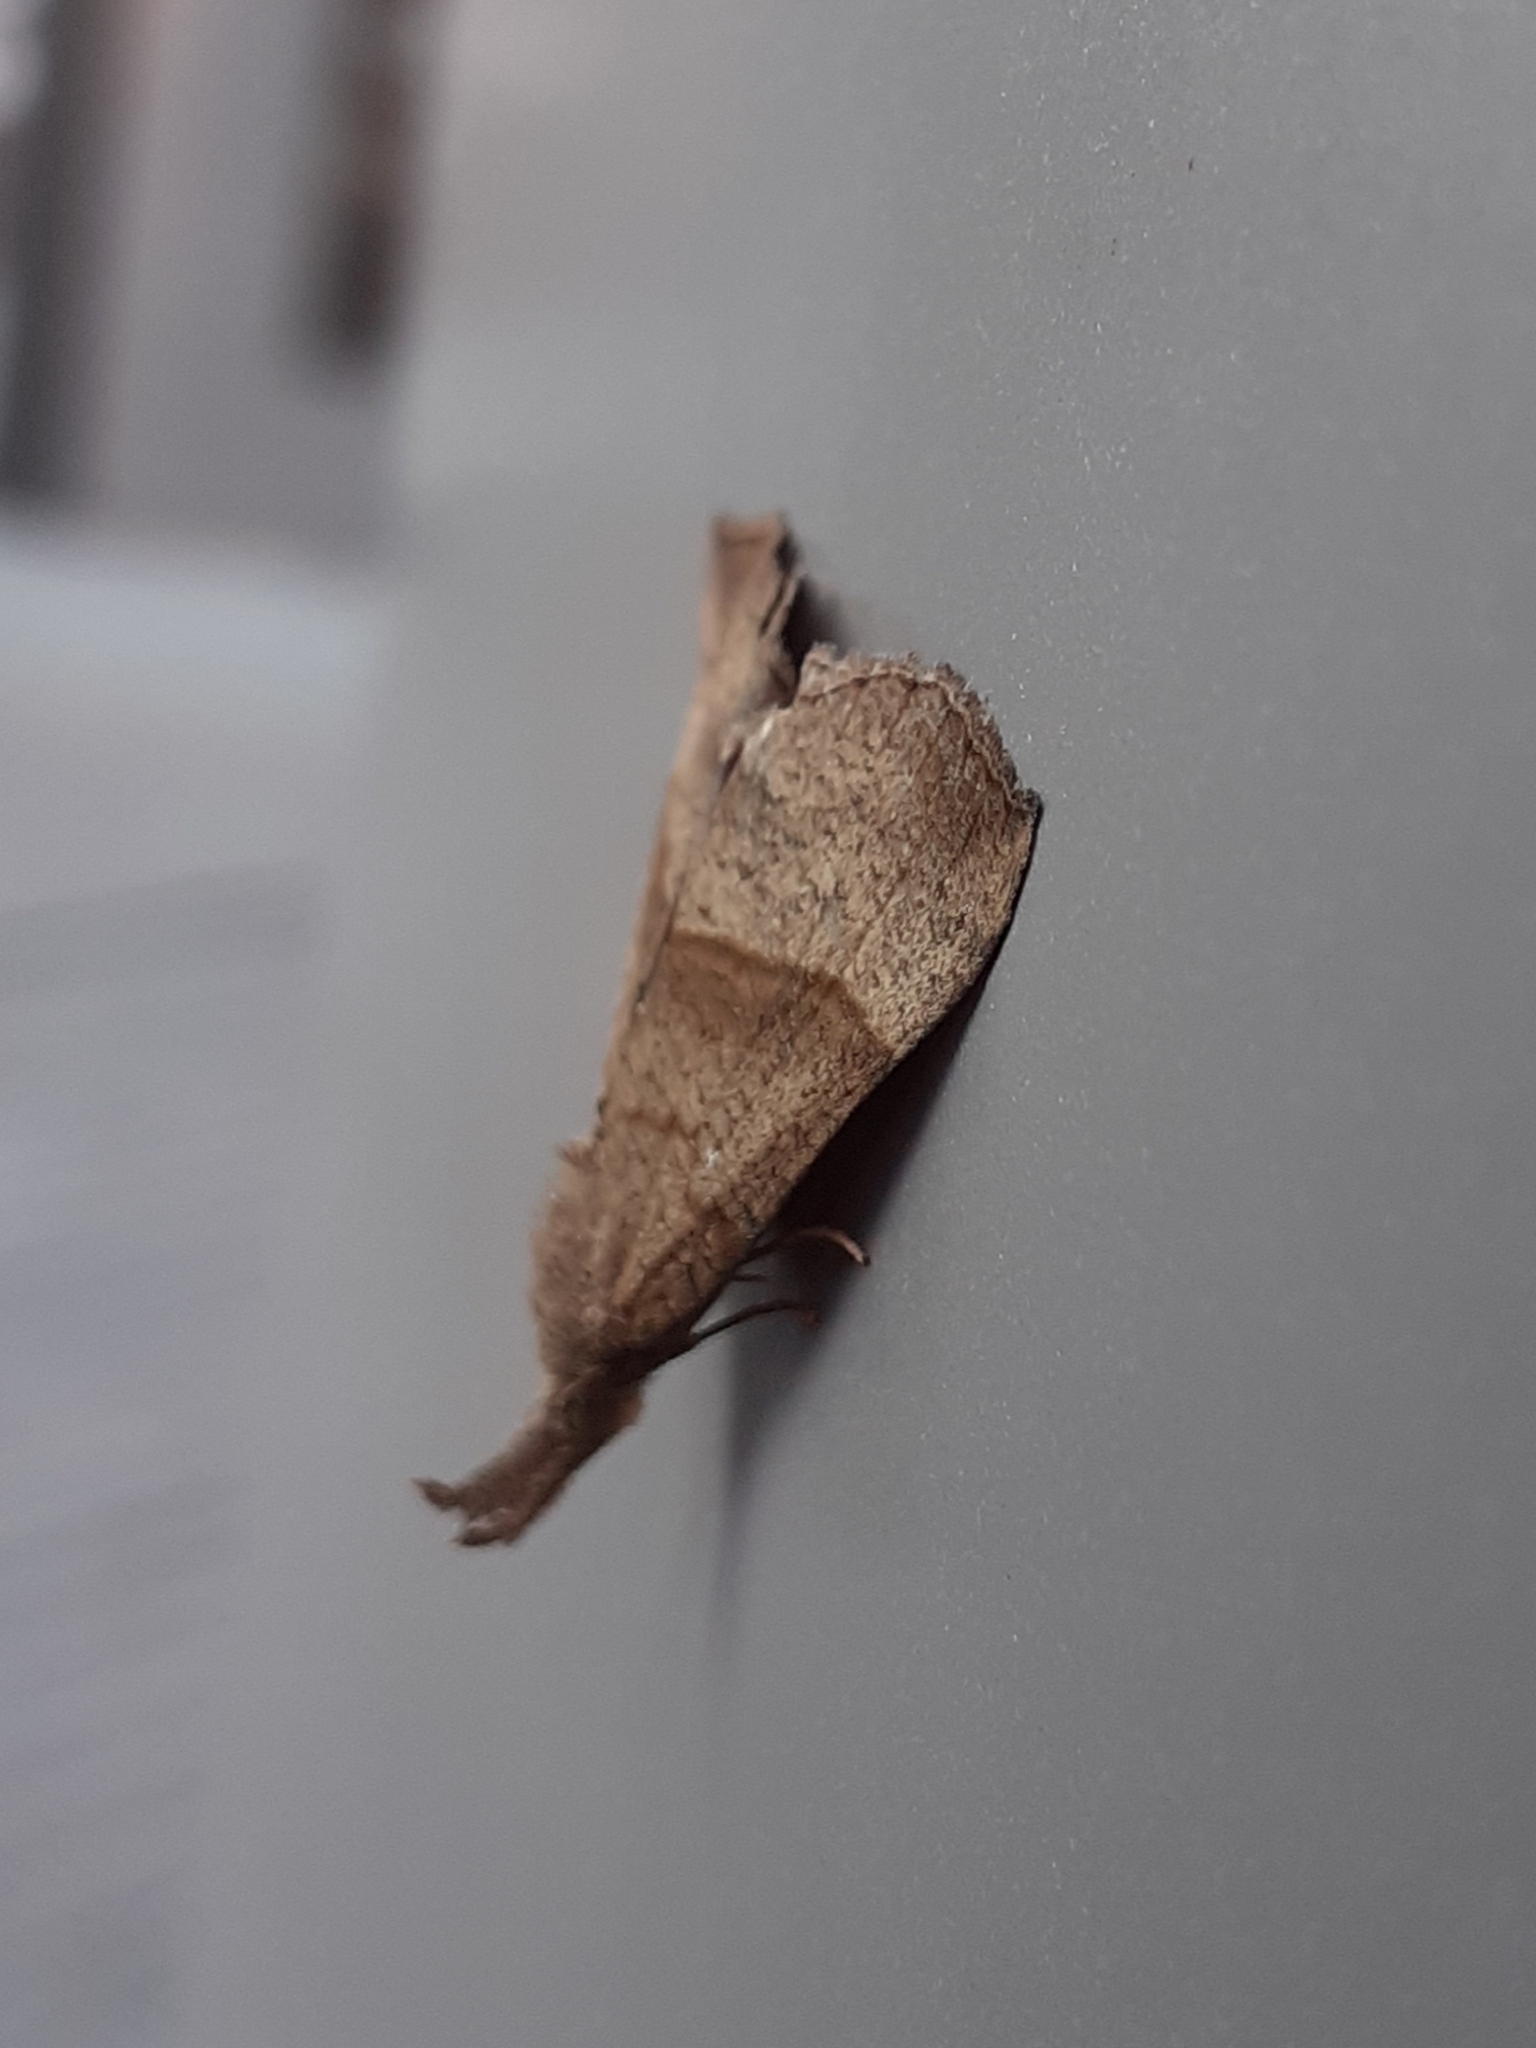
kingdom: Animalia
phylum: Arthropoda
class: Insecta
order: Lepidoptera
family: Erebidae
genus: Hypena
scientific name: Hypena proboscidalis
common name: Snout
